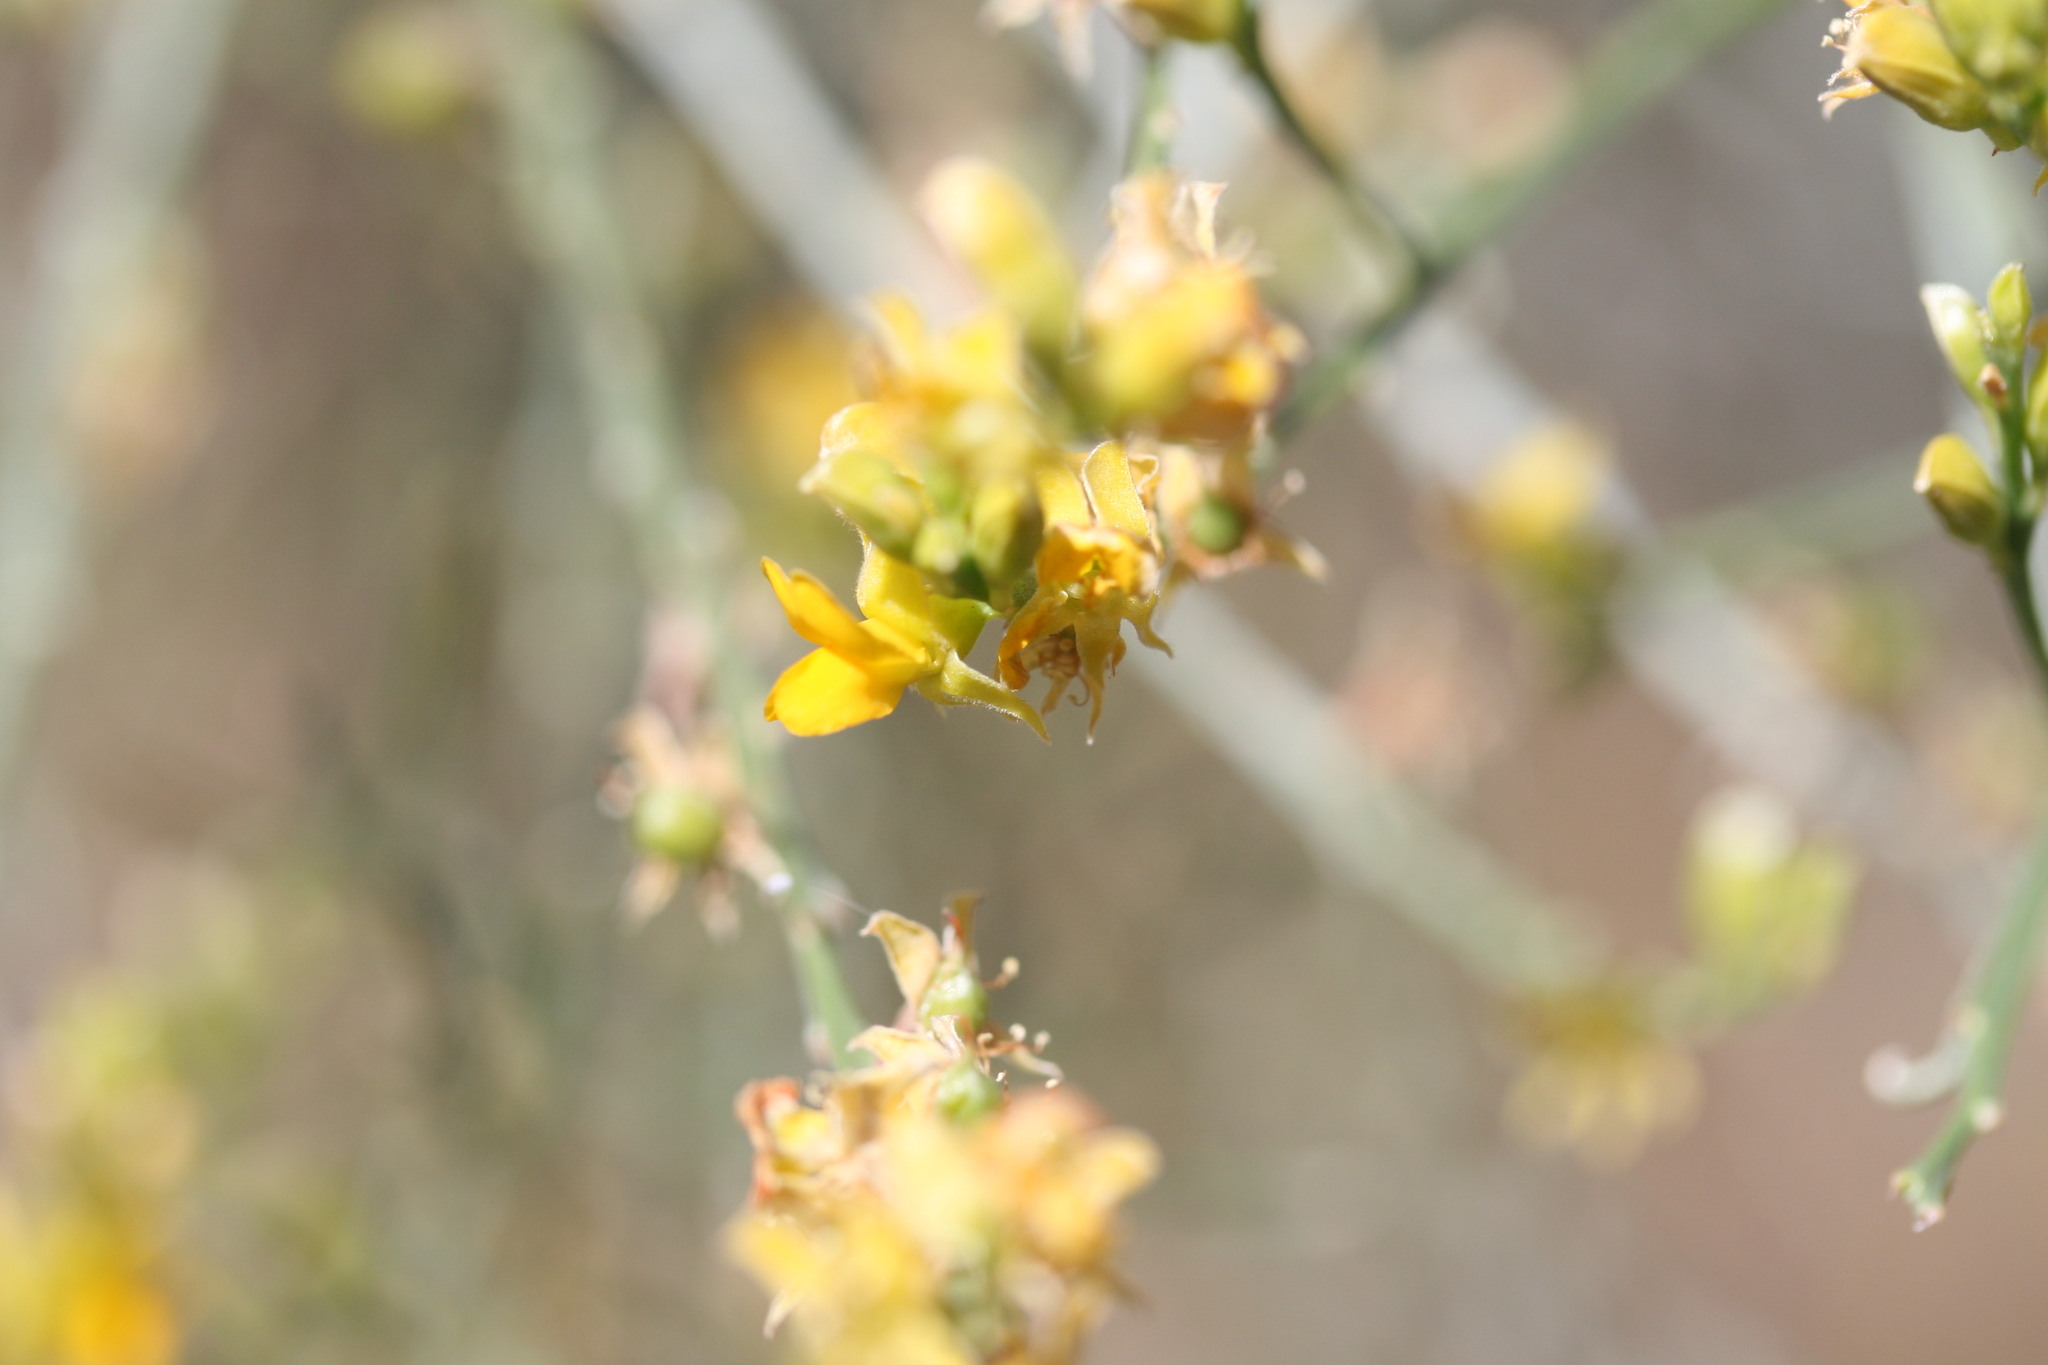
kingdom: Plantae
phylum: Tracheophyta
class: Magnoliopsida
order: Fabales
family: Fabaceae
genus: Jacksonia
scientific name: Jacksonia forrestii
